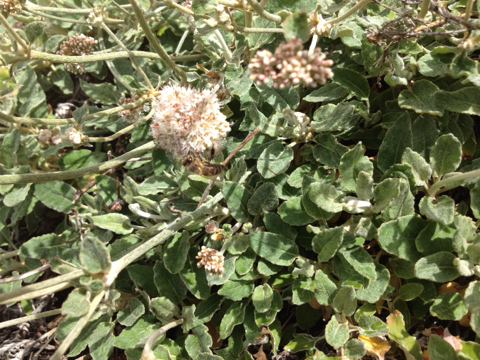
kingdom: Animalia
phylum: Arthropoda
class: Insecta
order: Hymenoptera
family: Apidae
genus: Apis
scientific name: Apis mellifera
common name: Honey bee
